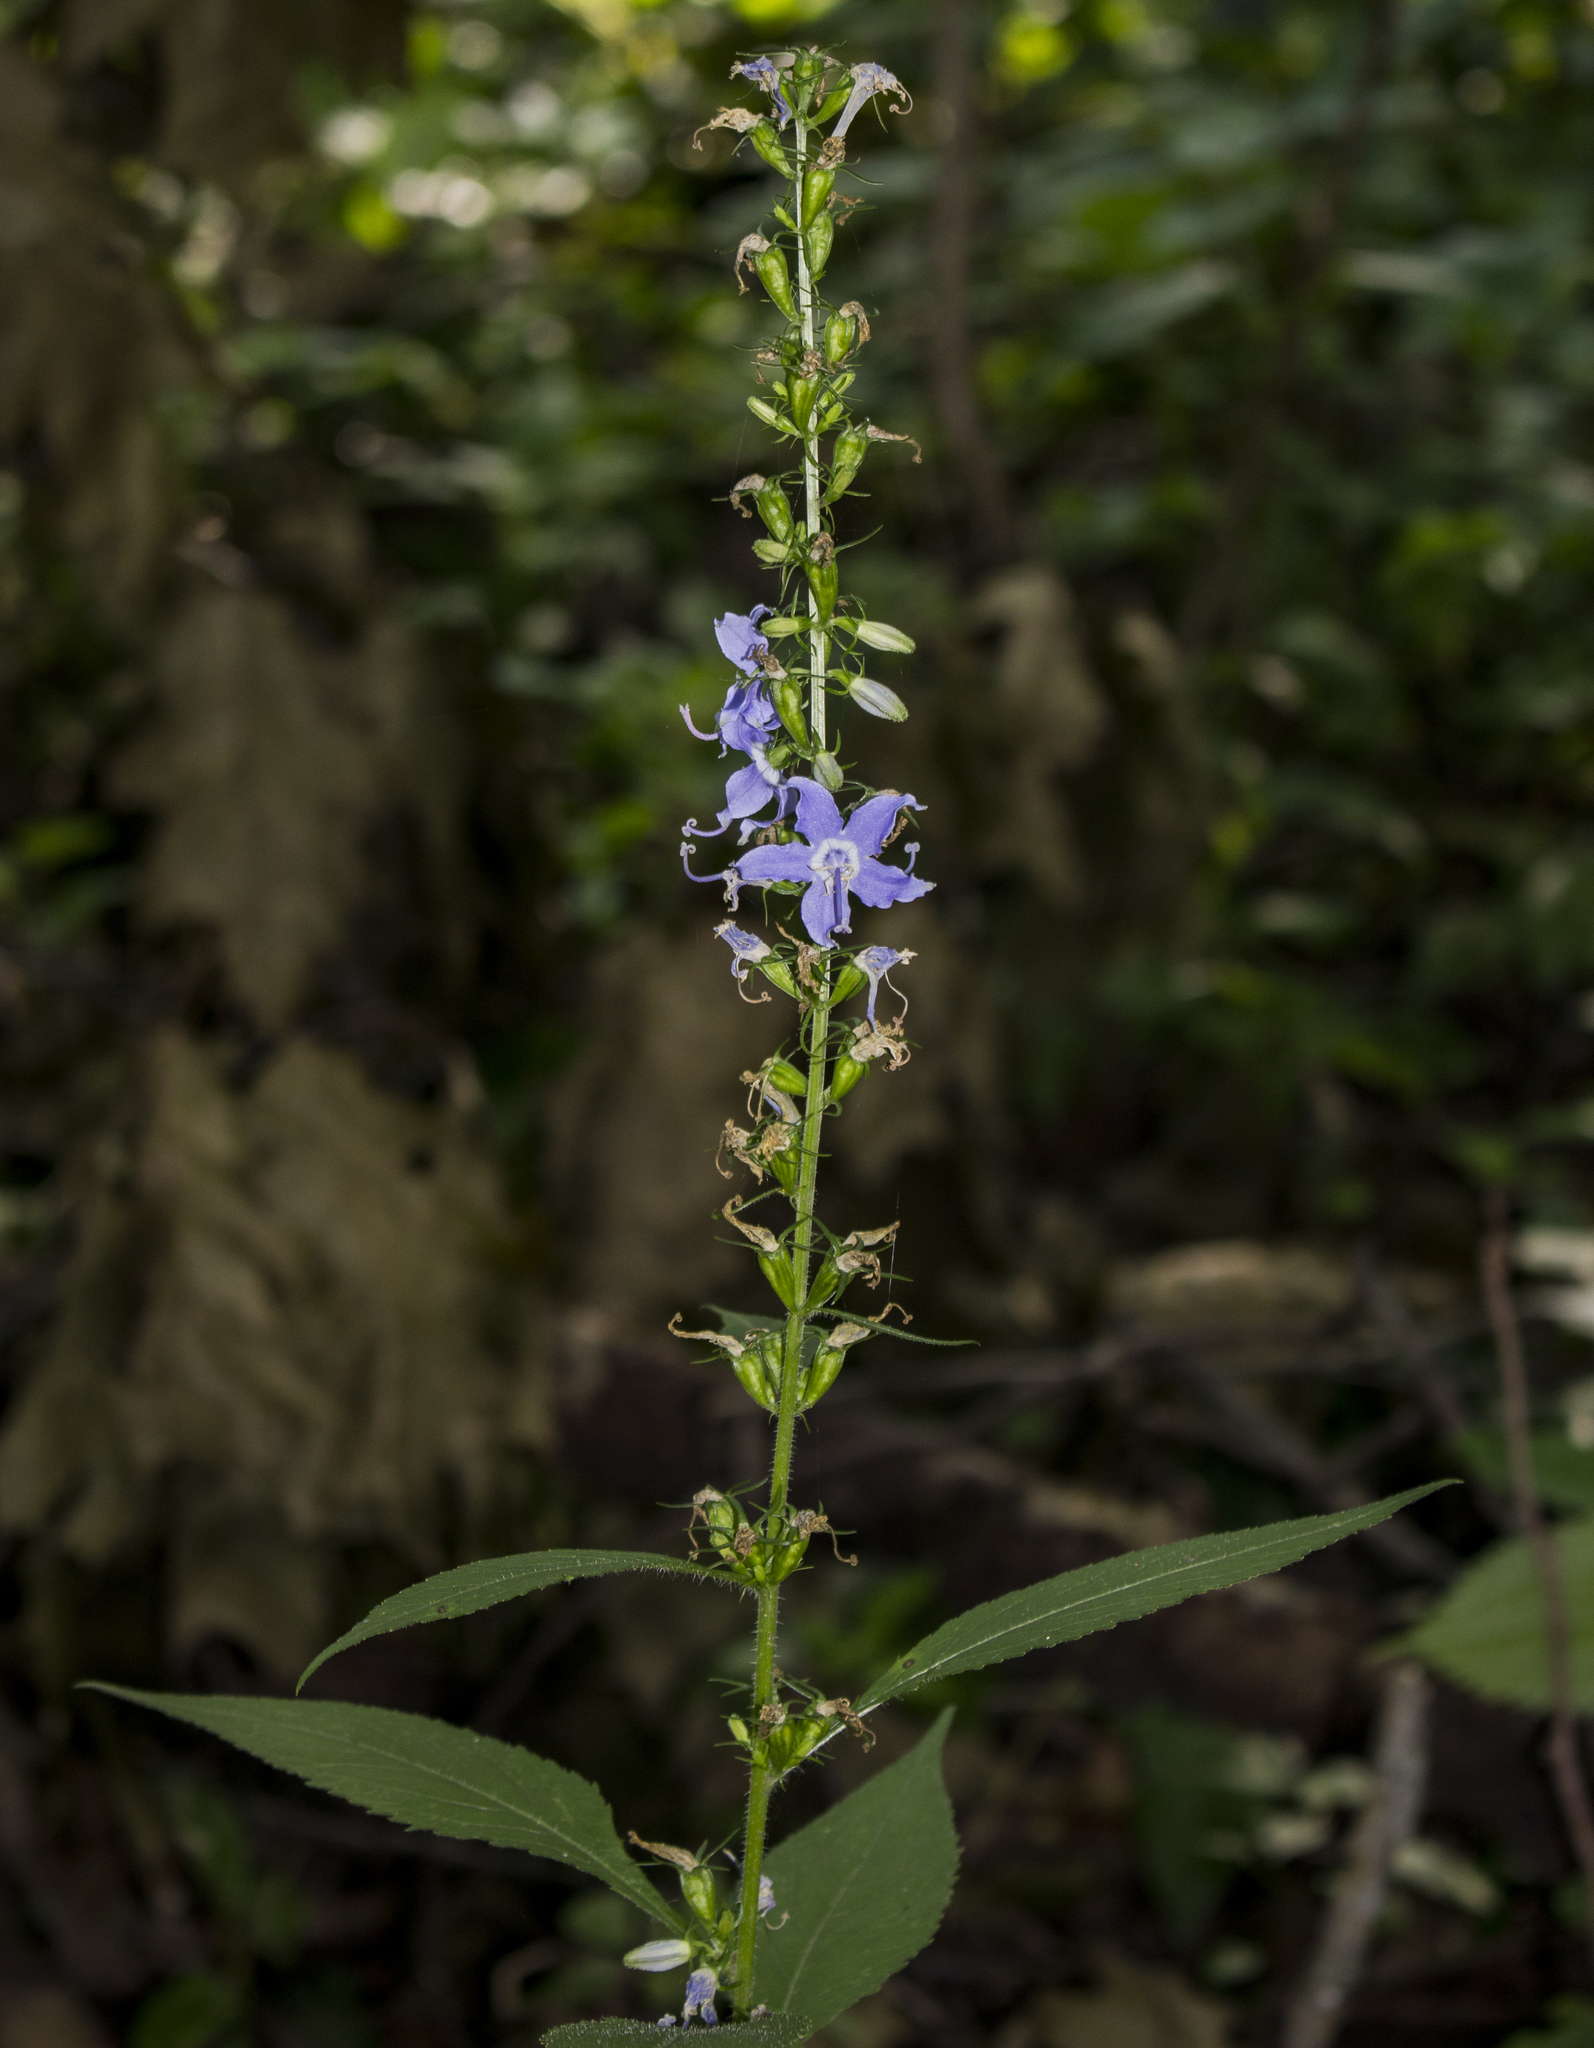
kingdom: Plantae
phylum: Tracheophyta
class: Magnoliopsida
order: Asterales
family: Campanulaceae
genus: Campanulastrum
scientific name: Campanulastrum americanum
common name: American bellflower
